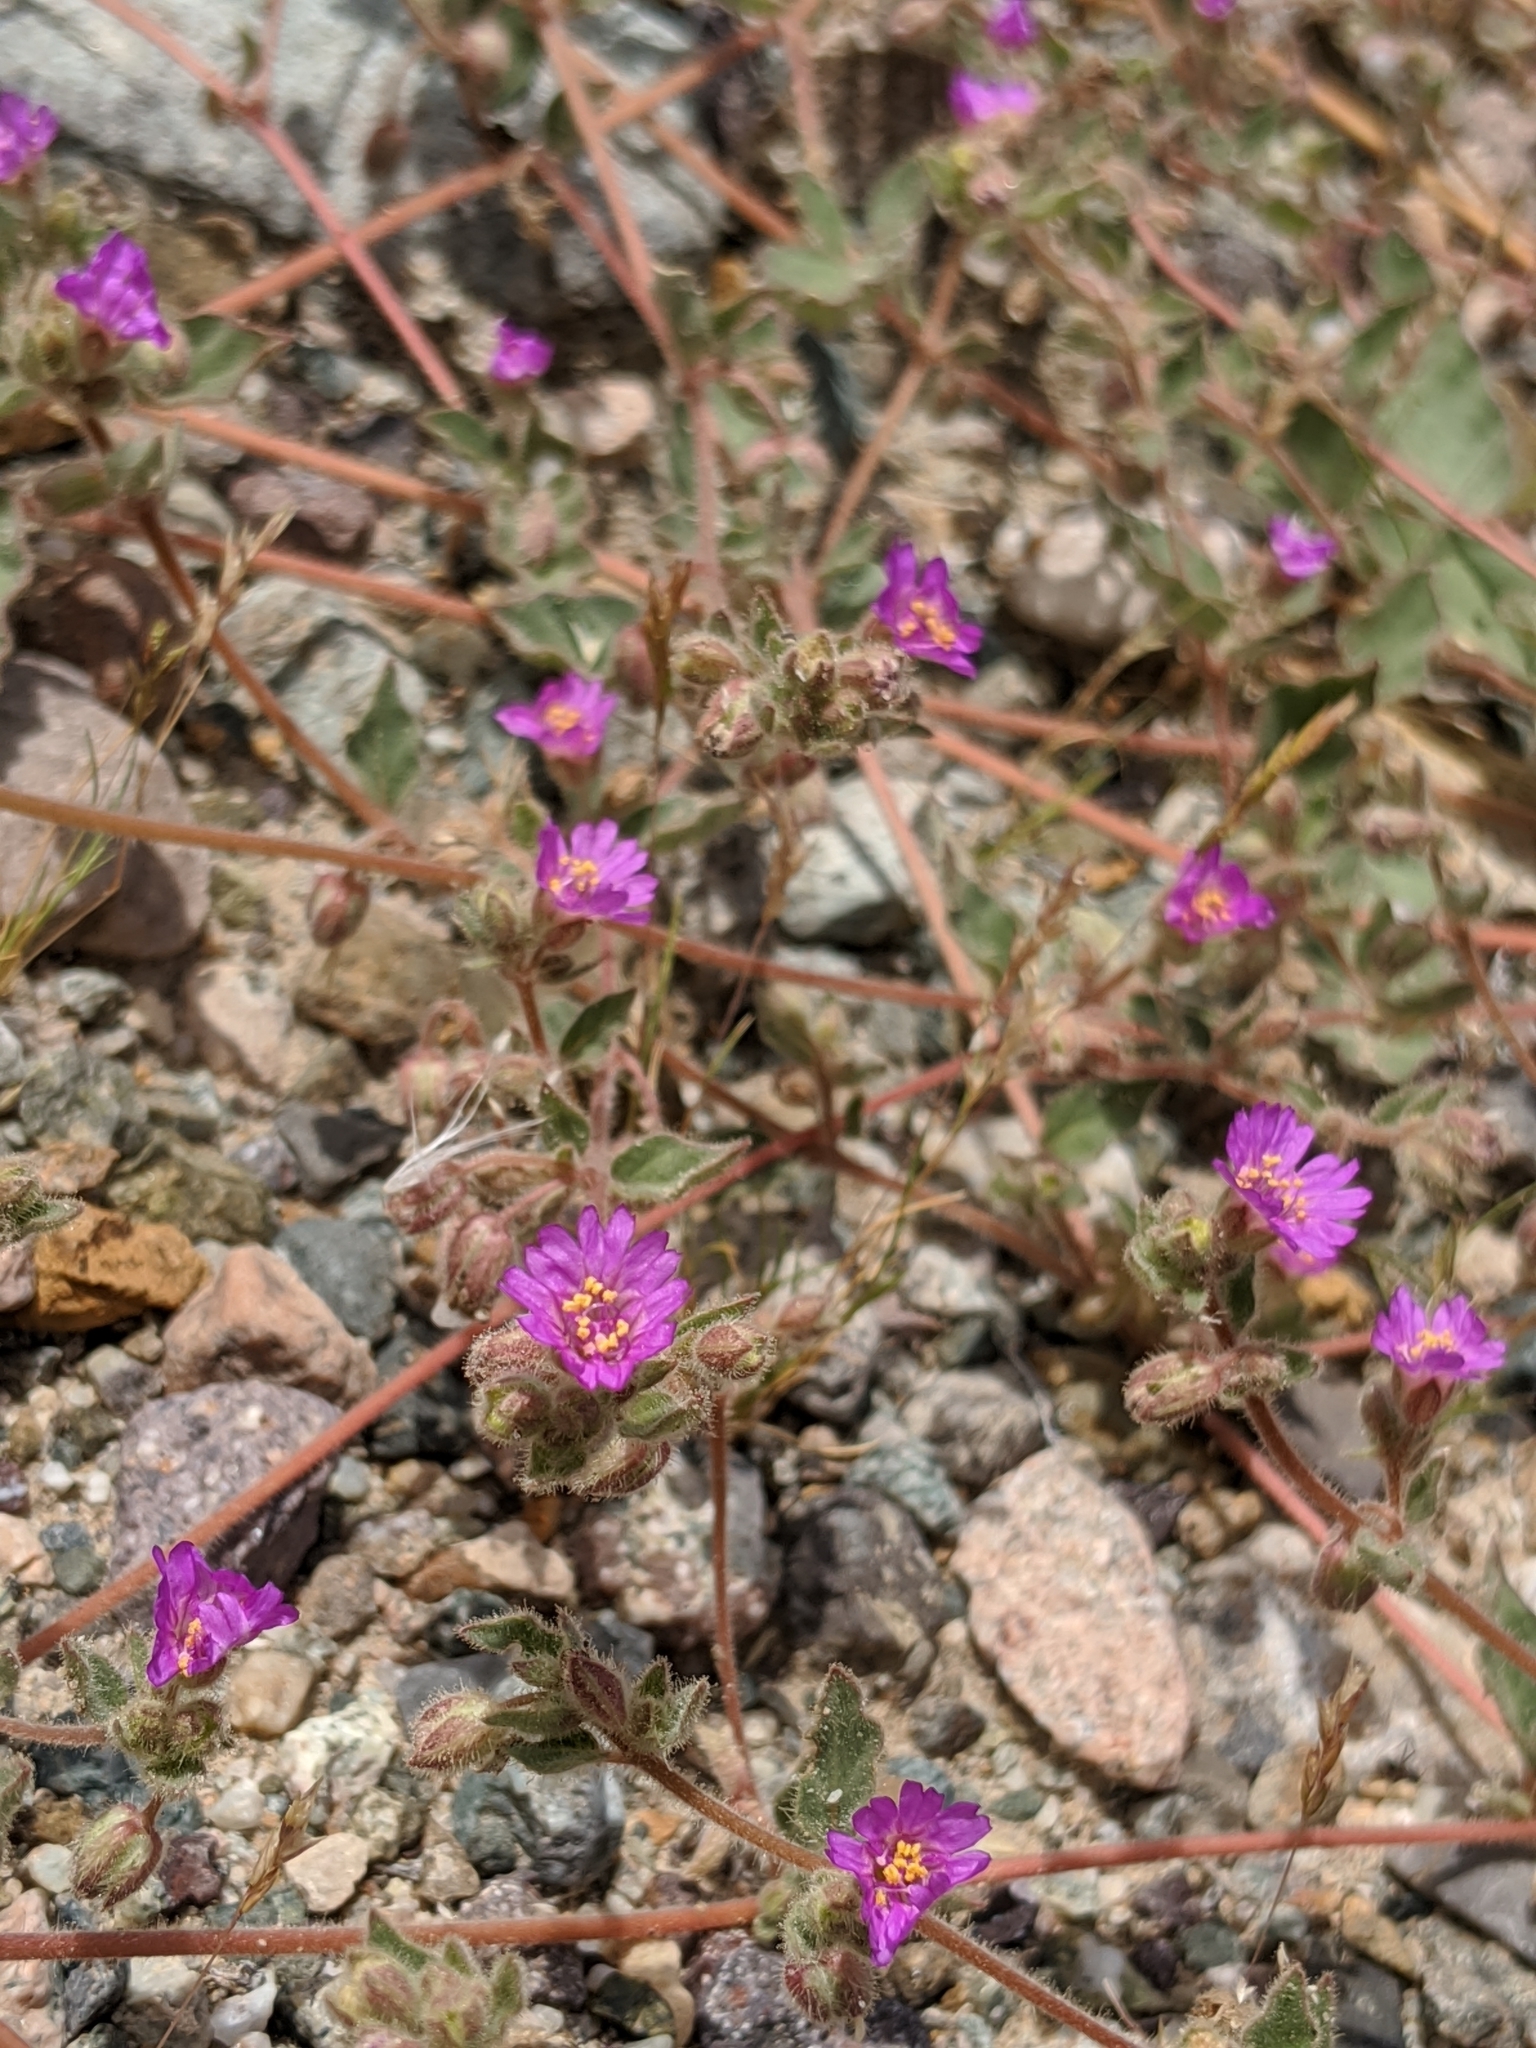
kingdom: Plantae
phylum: Tracheophyta
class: Magnoliopsida
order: Caryophyllales
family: Nyctaginaceae
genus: Allionia
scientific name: Allionia incarnata
